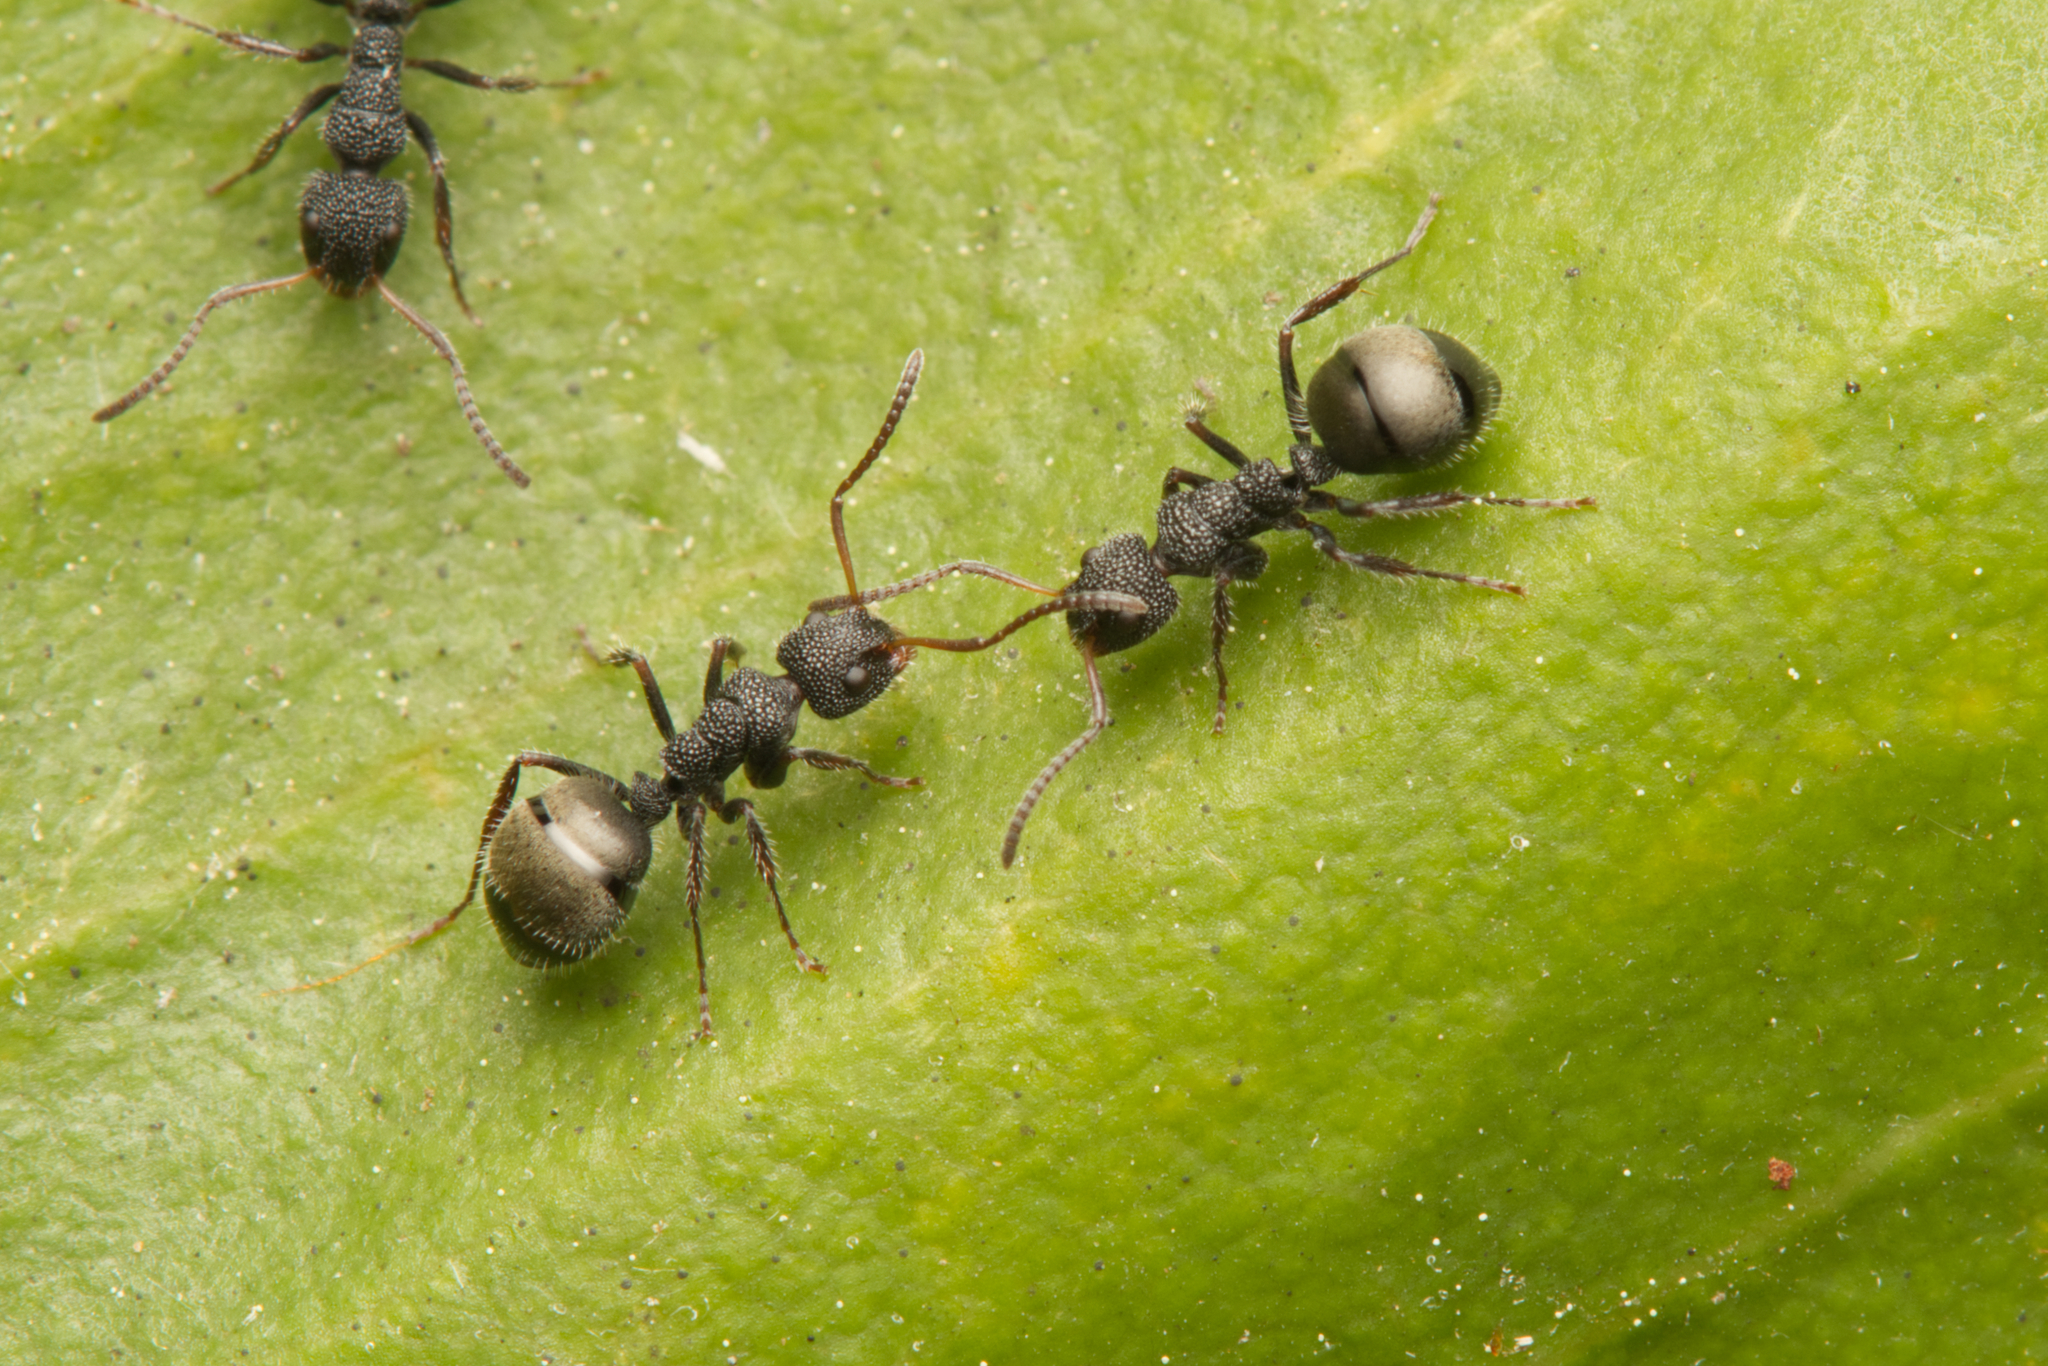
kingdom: Animalia
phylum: Arthropoda
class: Insecta
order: Hymenoptera
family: Formicidae
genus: Dolichoderus
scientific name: Dolichoderus scrobiculatus
